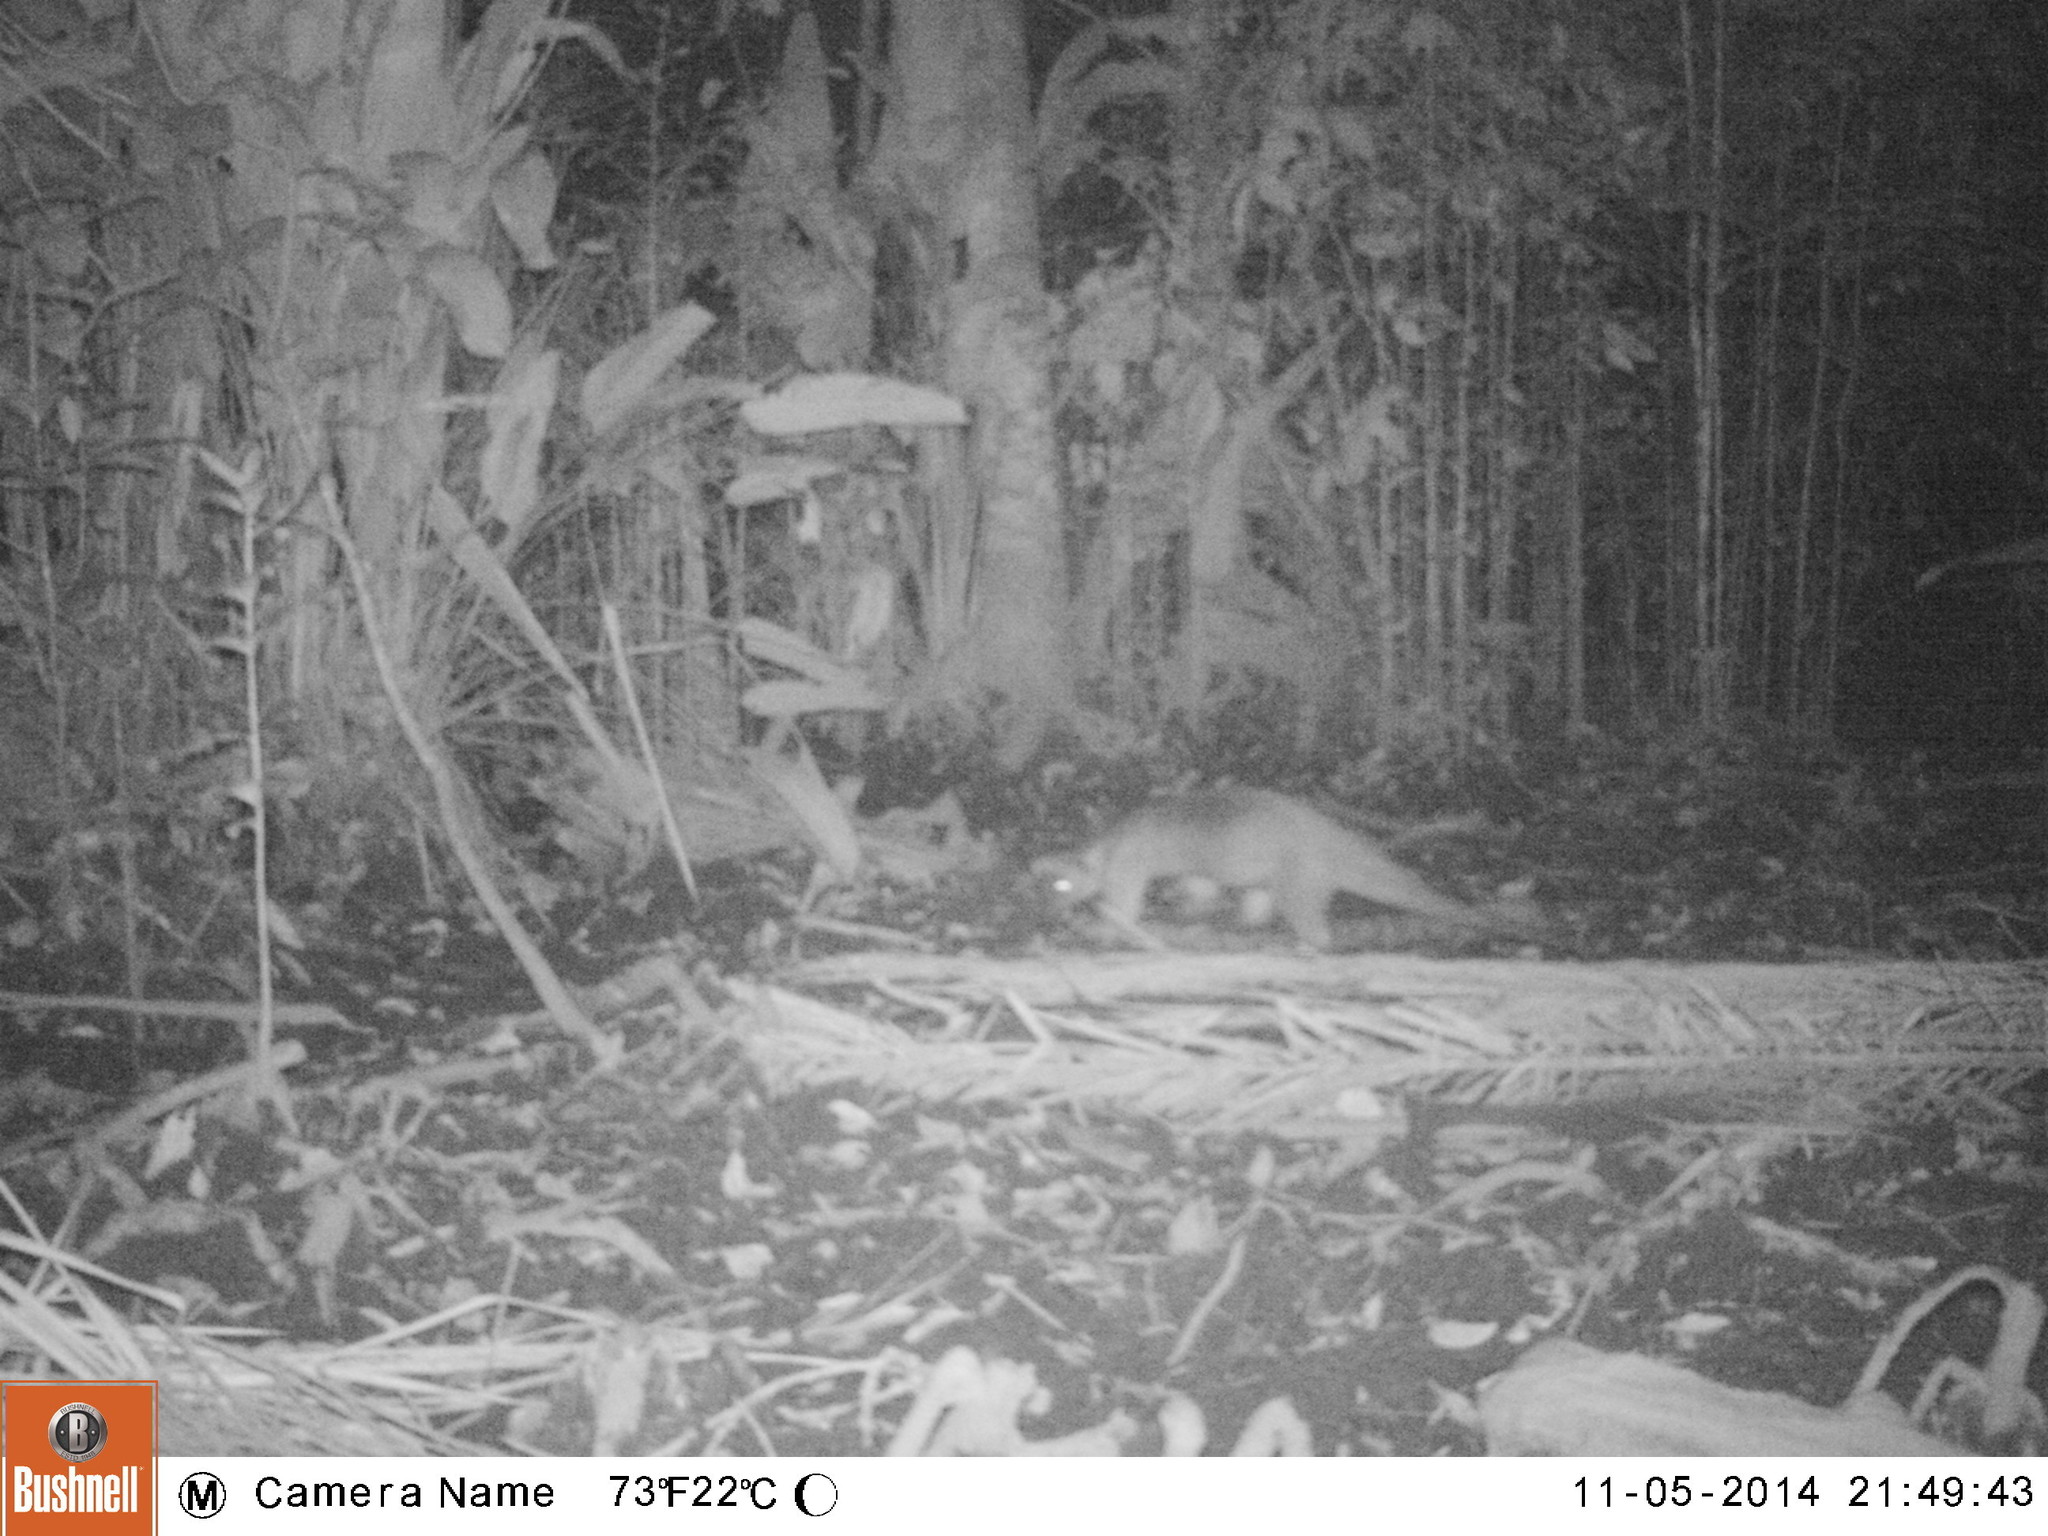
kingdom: Animalia
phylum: Chordata
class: Mammalia
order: Pilosa
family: Myrmecophagidae
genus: Tamandua
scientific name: Tamandua tetradactyla
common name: Southern tamandua
